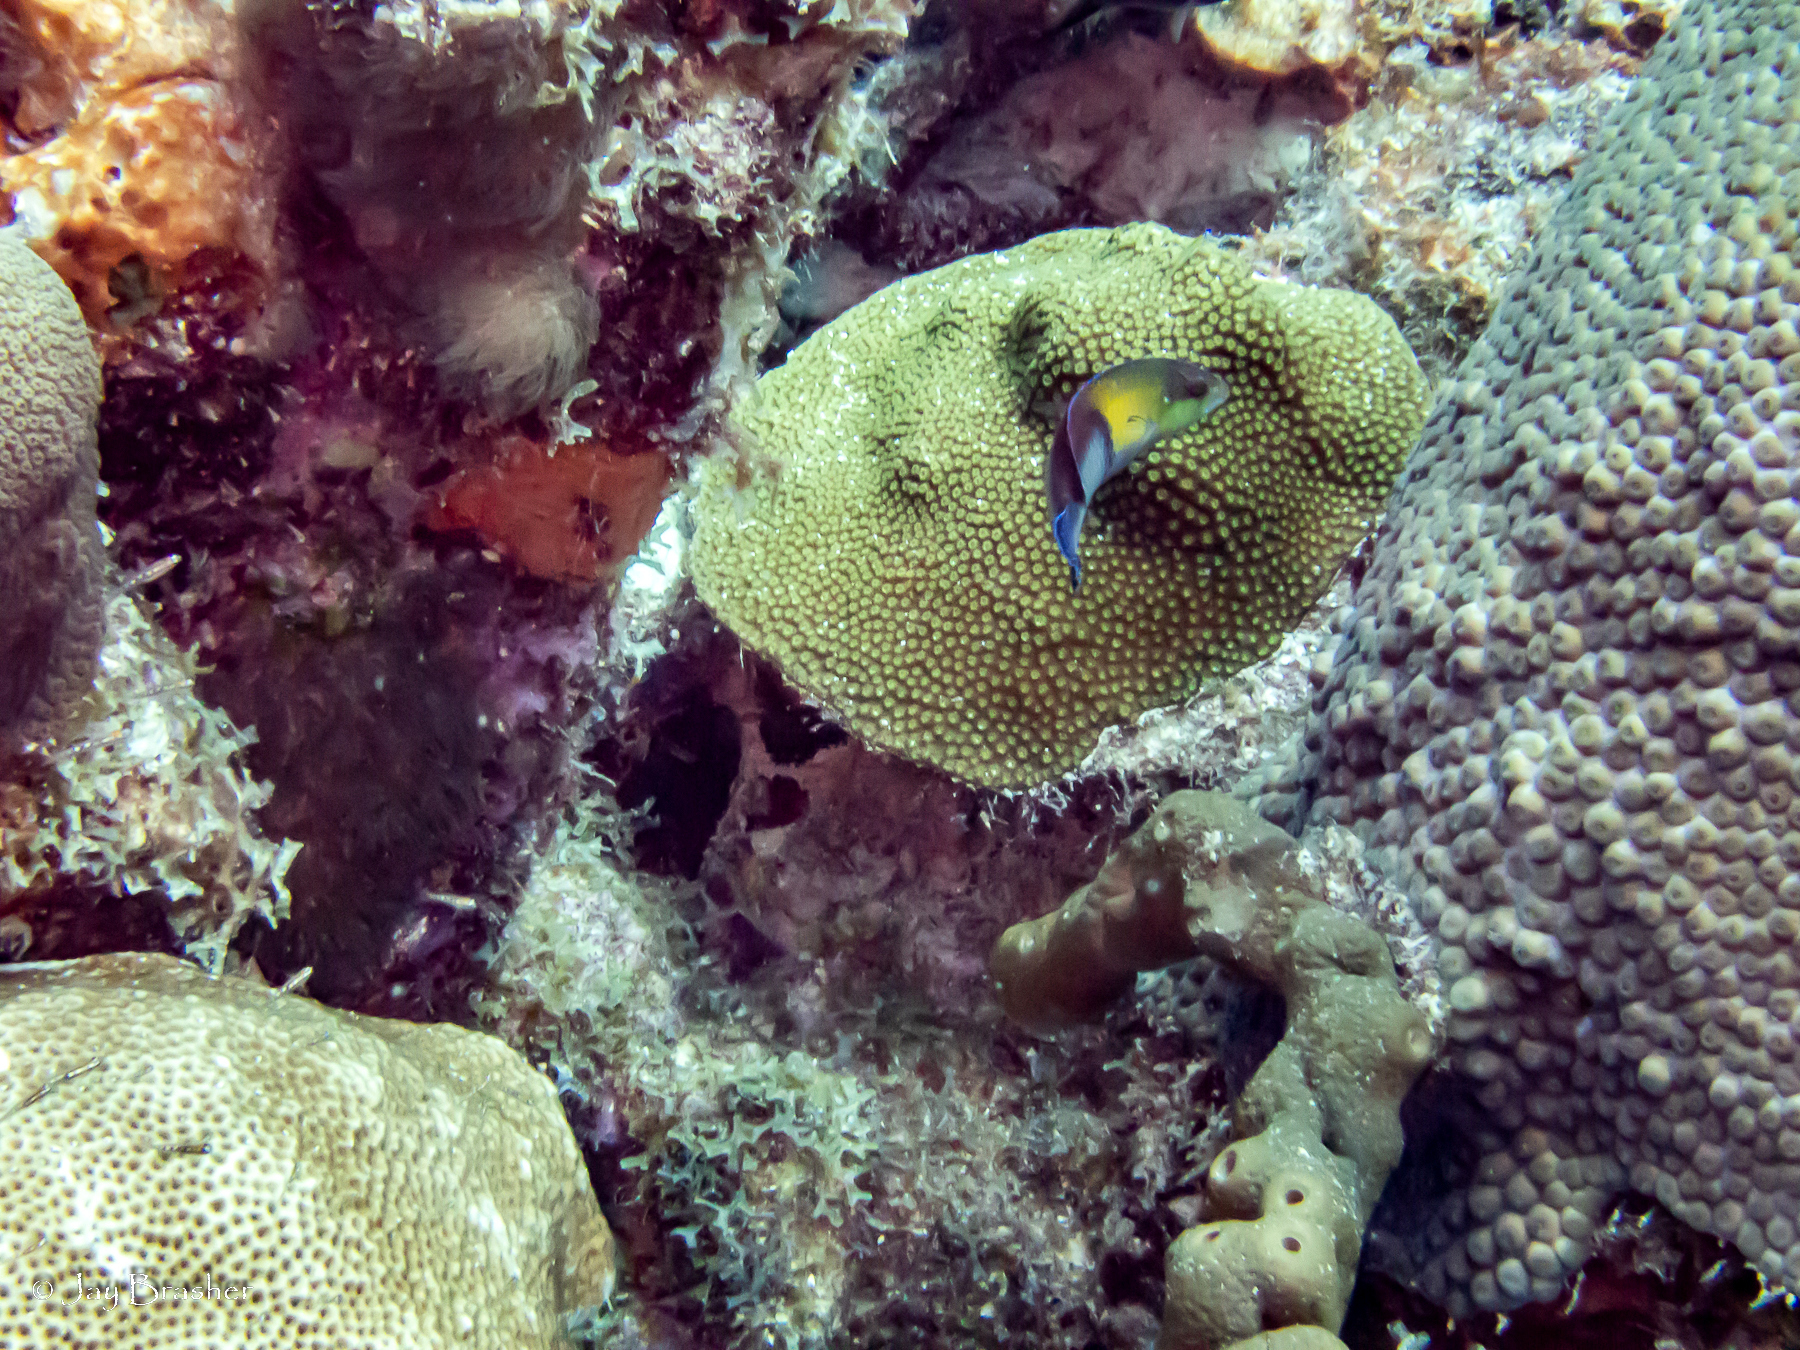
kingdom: Animalia
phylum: Cnidaria
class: Anthozoa
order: Scleractinia
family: Montastraeidae
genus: Montastraea
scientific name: Montastraea cavernosa
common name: Great star coral
